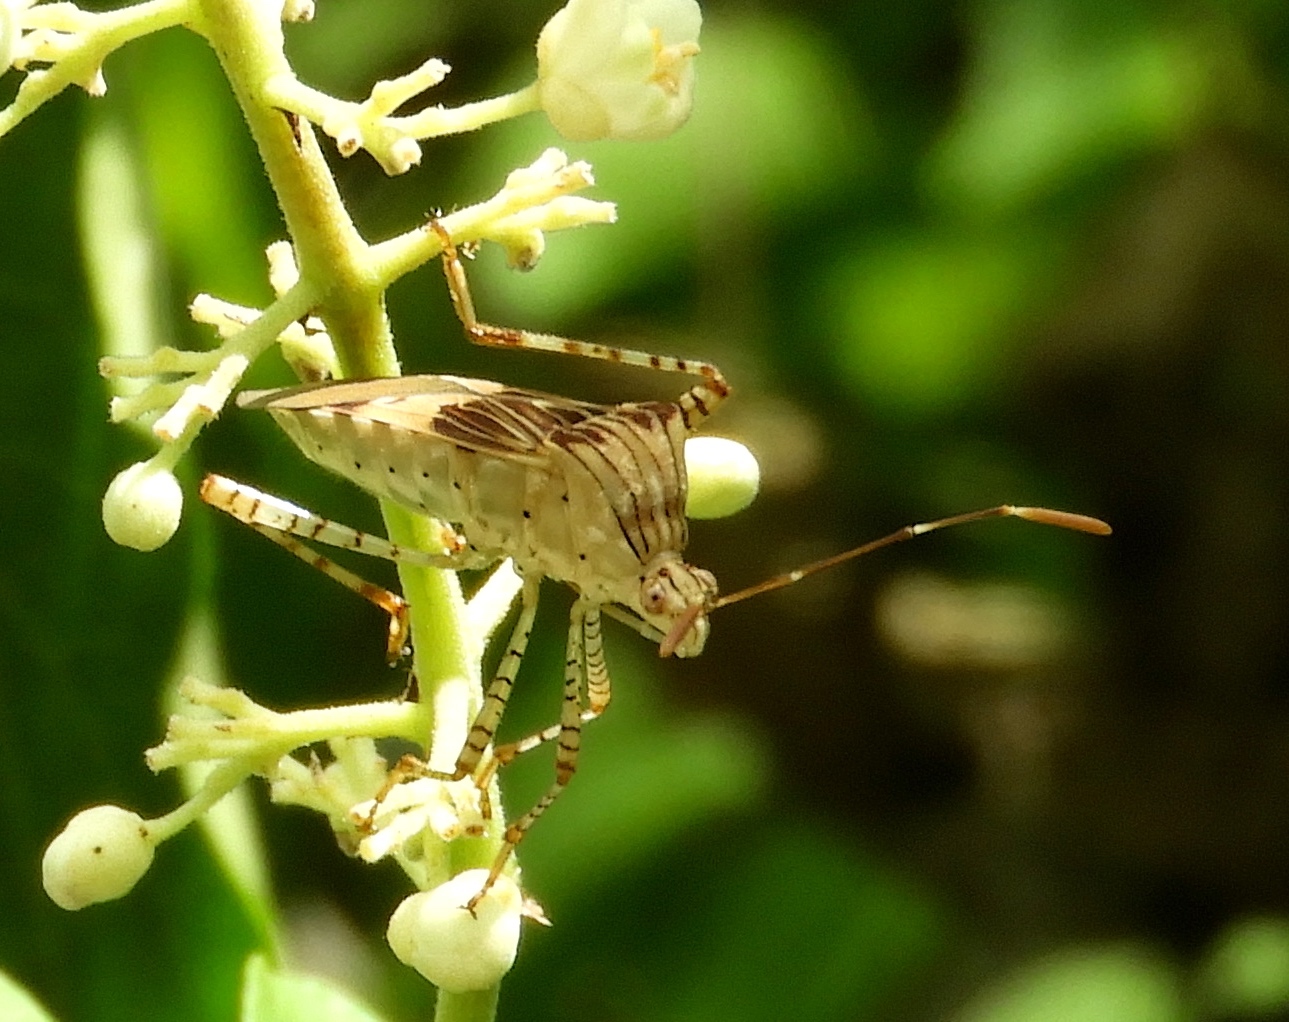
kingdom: Animalia
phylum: Arthropoda
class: Insecta
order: Hemiptera
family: Coreidae
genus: Hypselonotus
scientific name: Hypselonotus punctiventris
